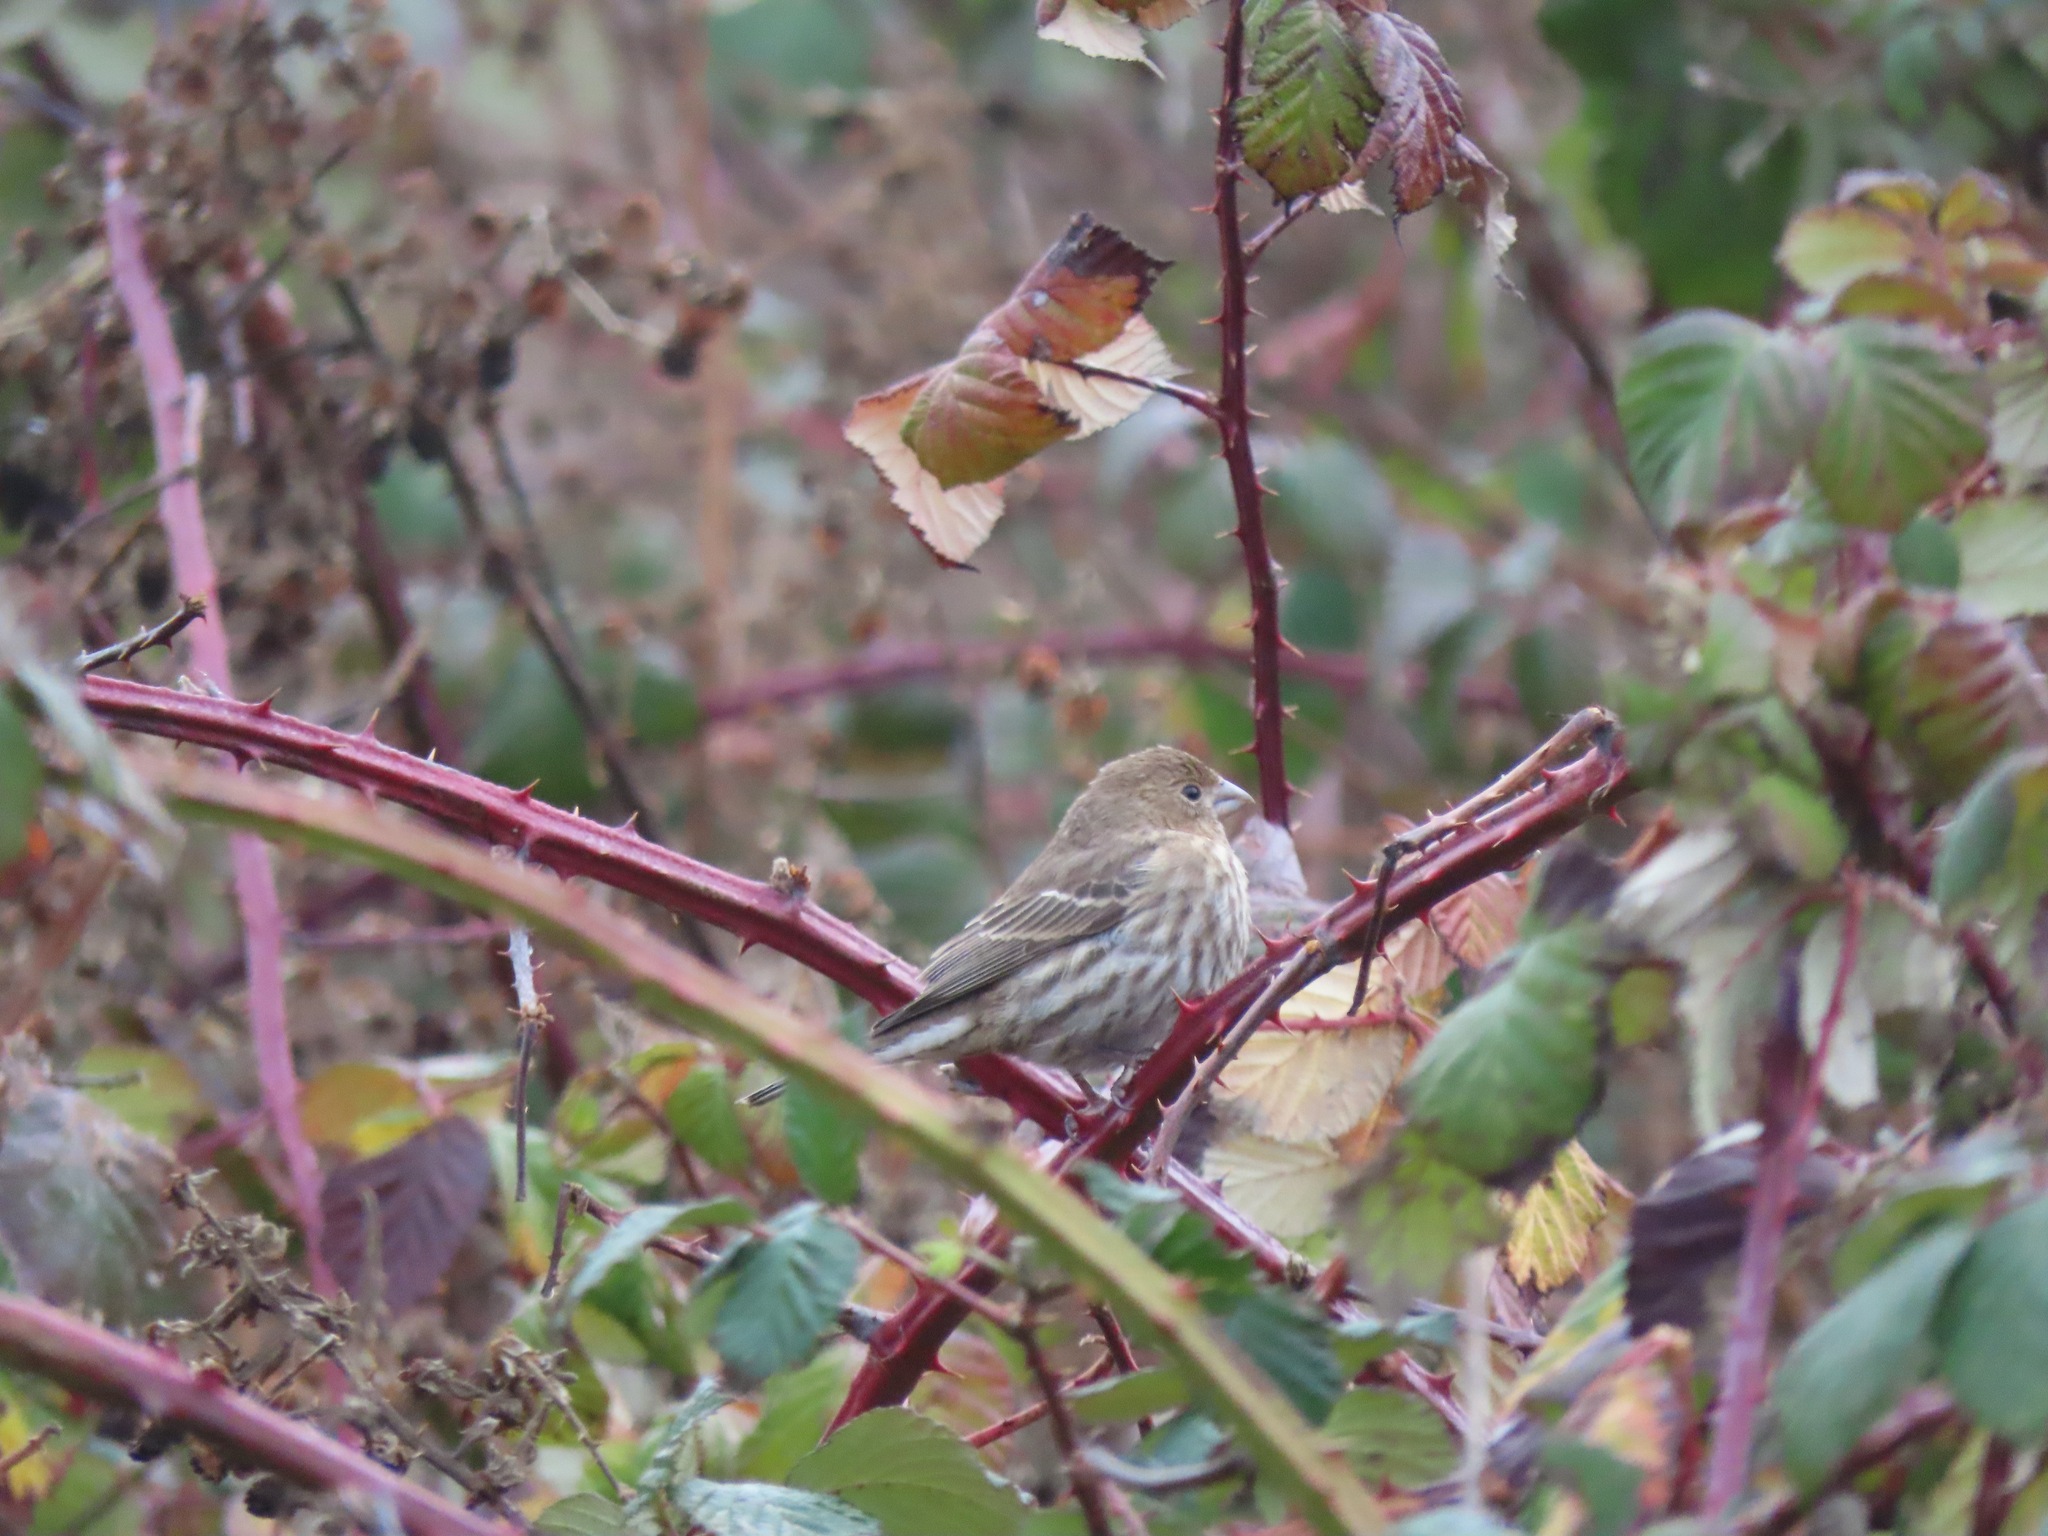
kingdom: Animalia
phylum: Chordata
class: Aves
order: Passeriformes
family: Fringillidae
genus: Haemorhous
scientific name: Haemorhous mexicanus
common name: House finch
